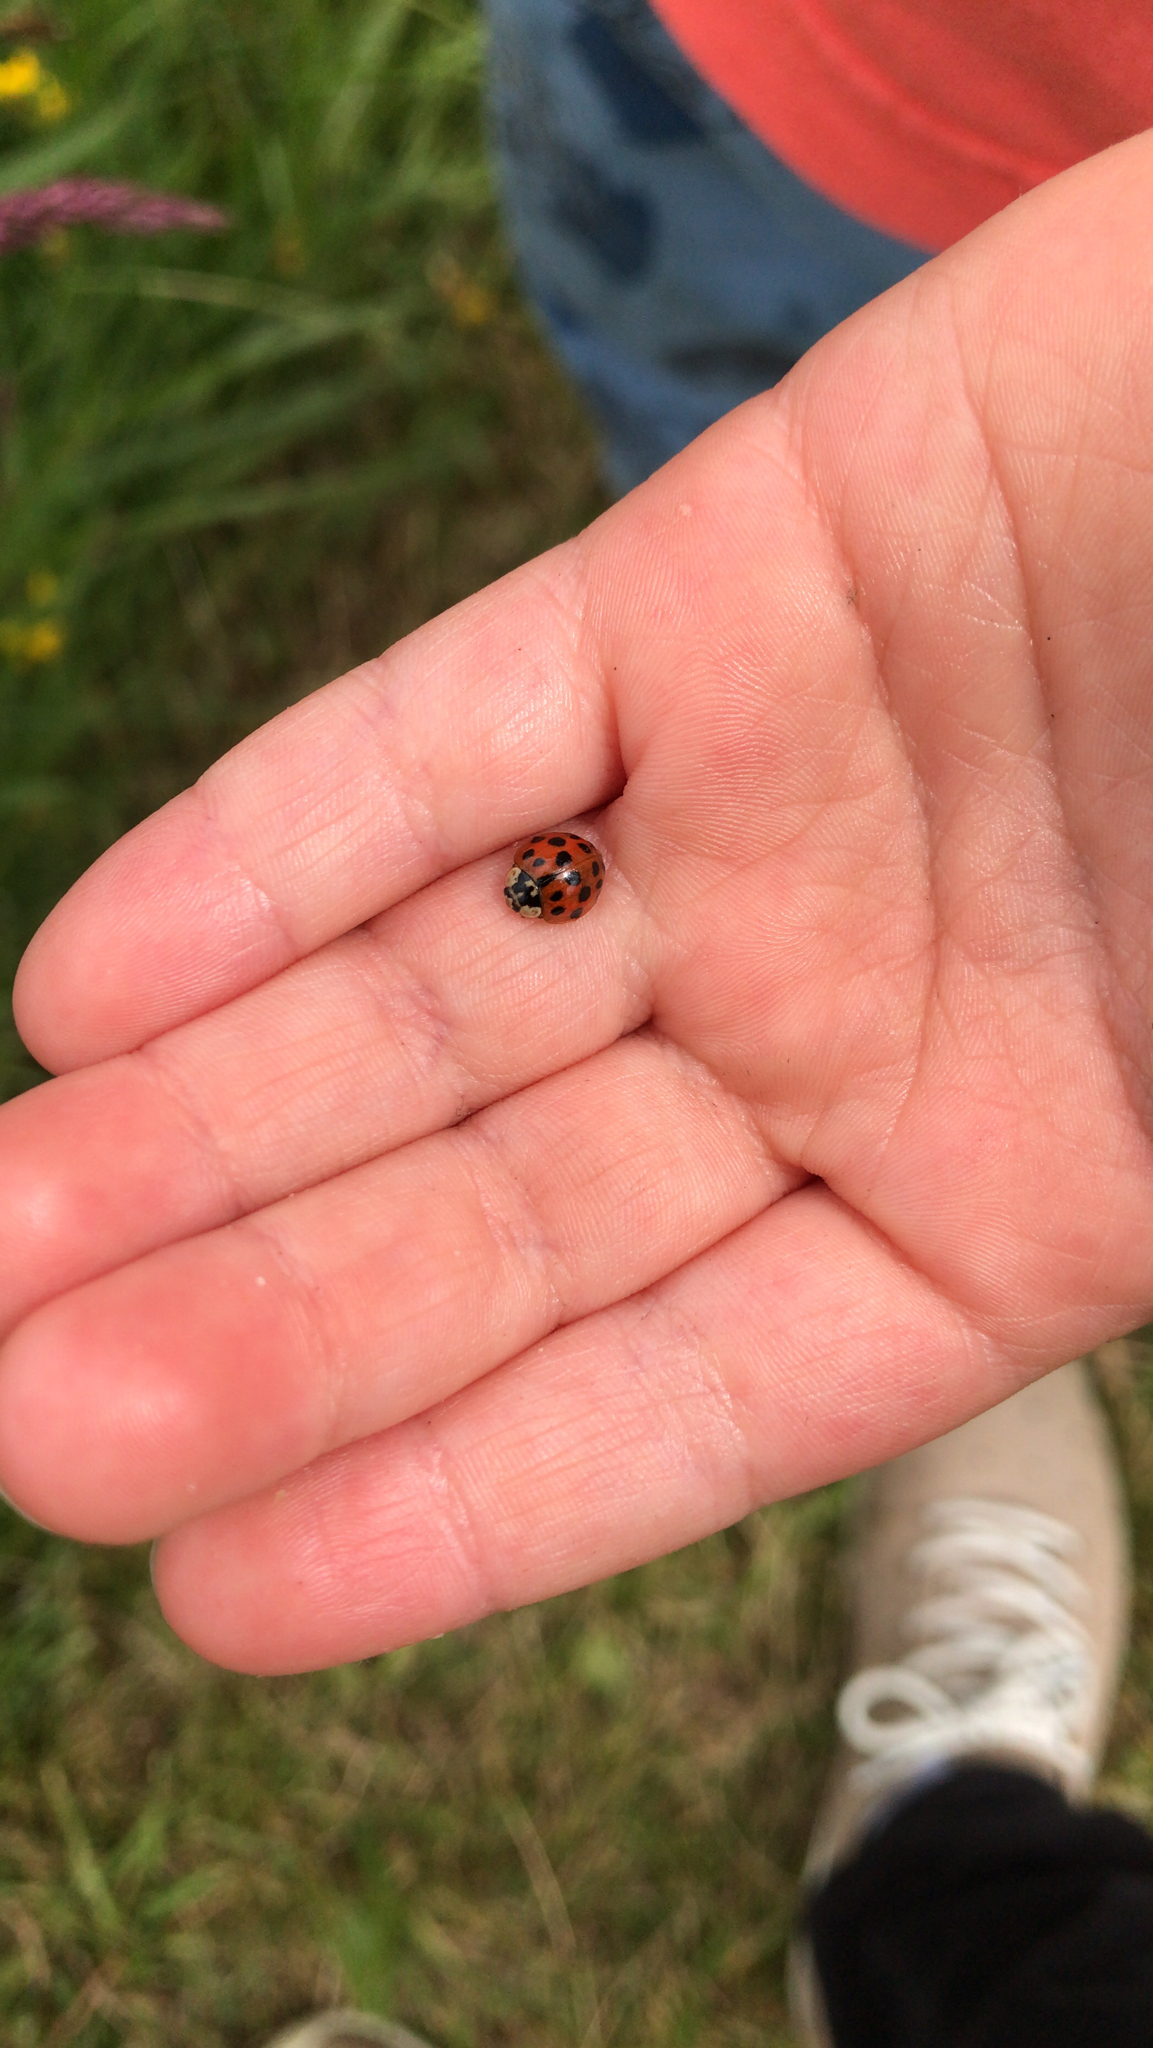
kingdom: Animalia
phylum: Arthropoda
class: Insecta
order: Coleoptera
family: Coccinellidae
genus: Harmonia
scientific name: Harmonia axyridis
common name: Harlequin ladybird
